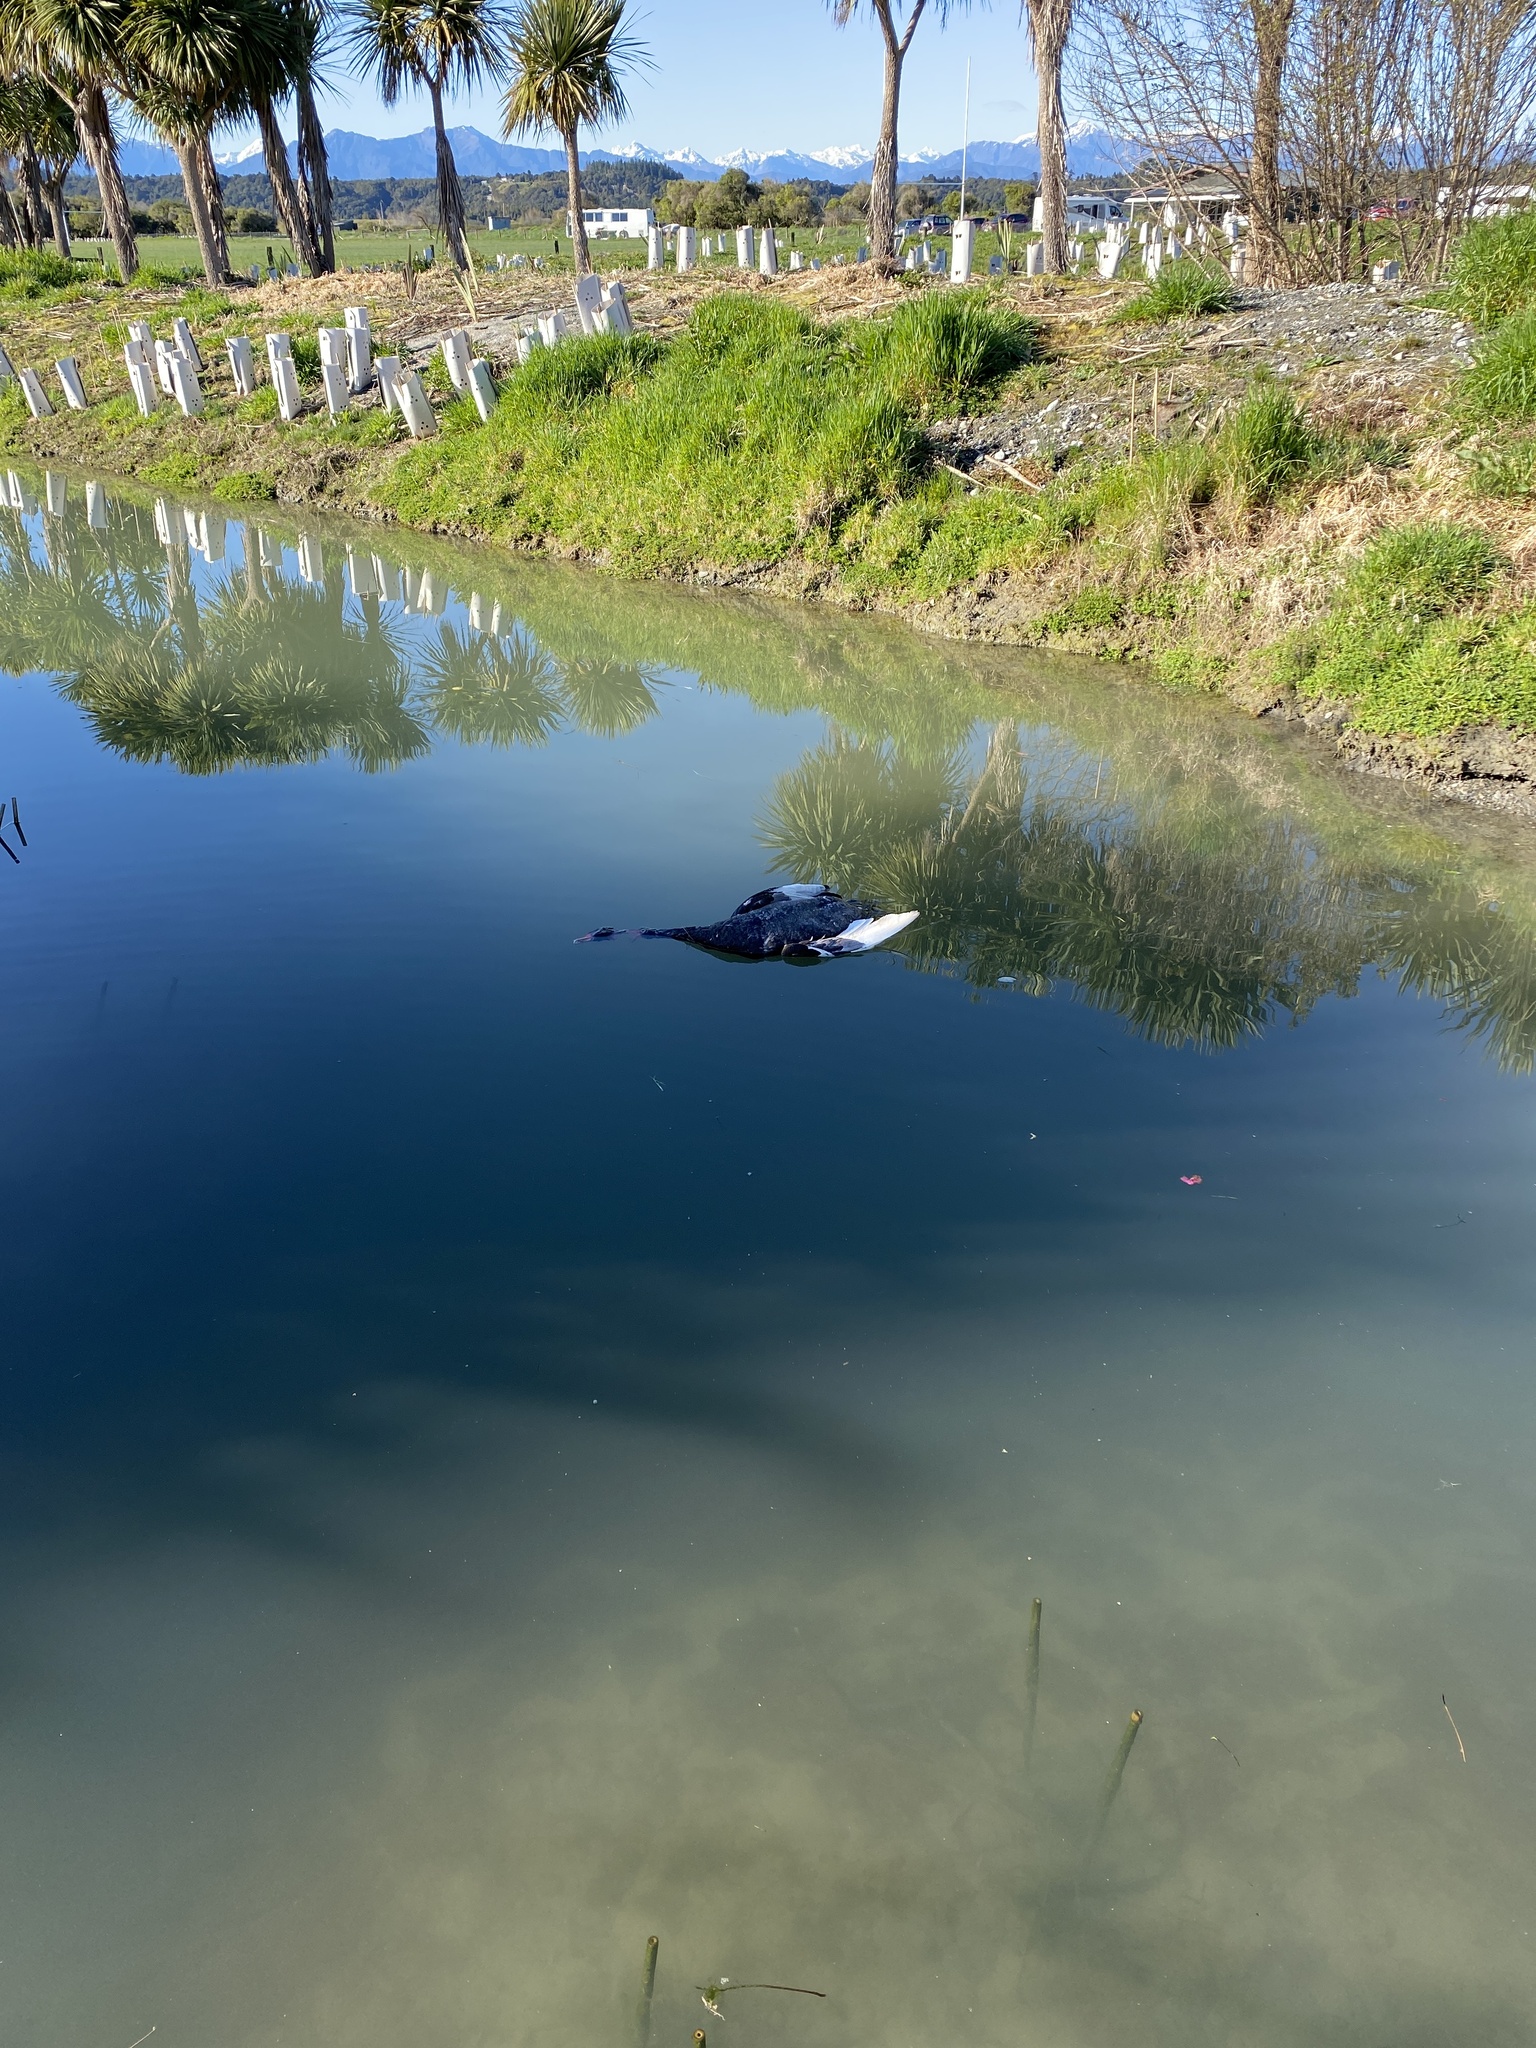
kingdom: Animalia
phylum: Chordata
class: Aves
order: Anseriformes
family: Anatidae
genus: Cygnus
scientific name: Cygnus atratus
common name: Black swan
